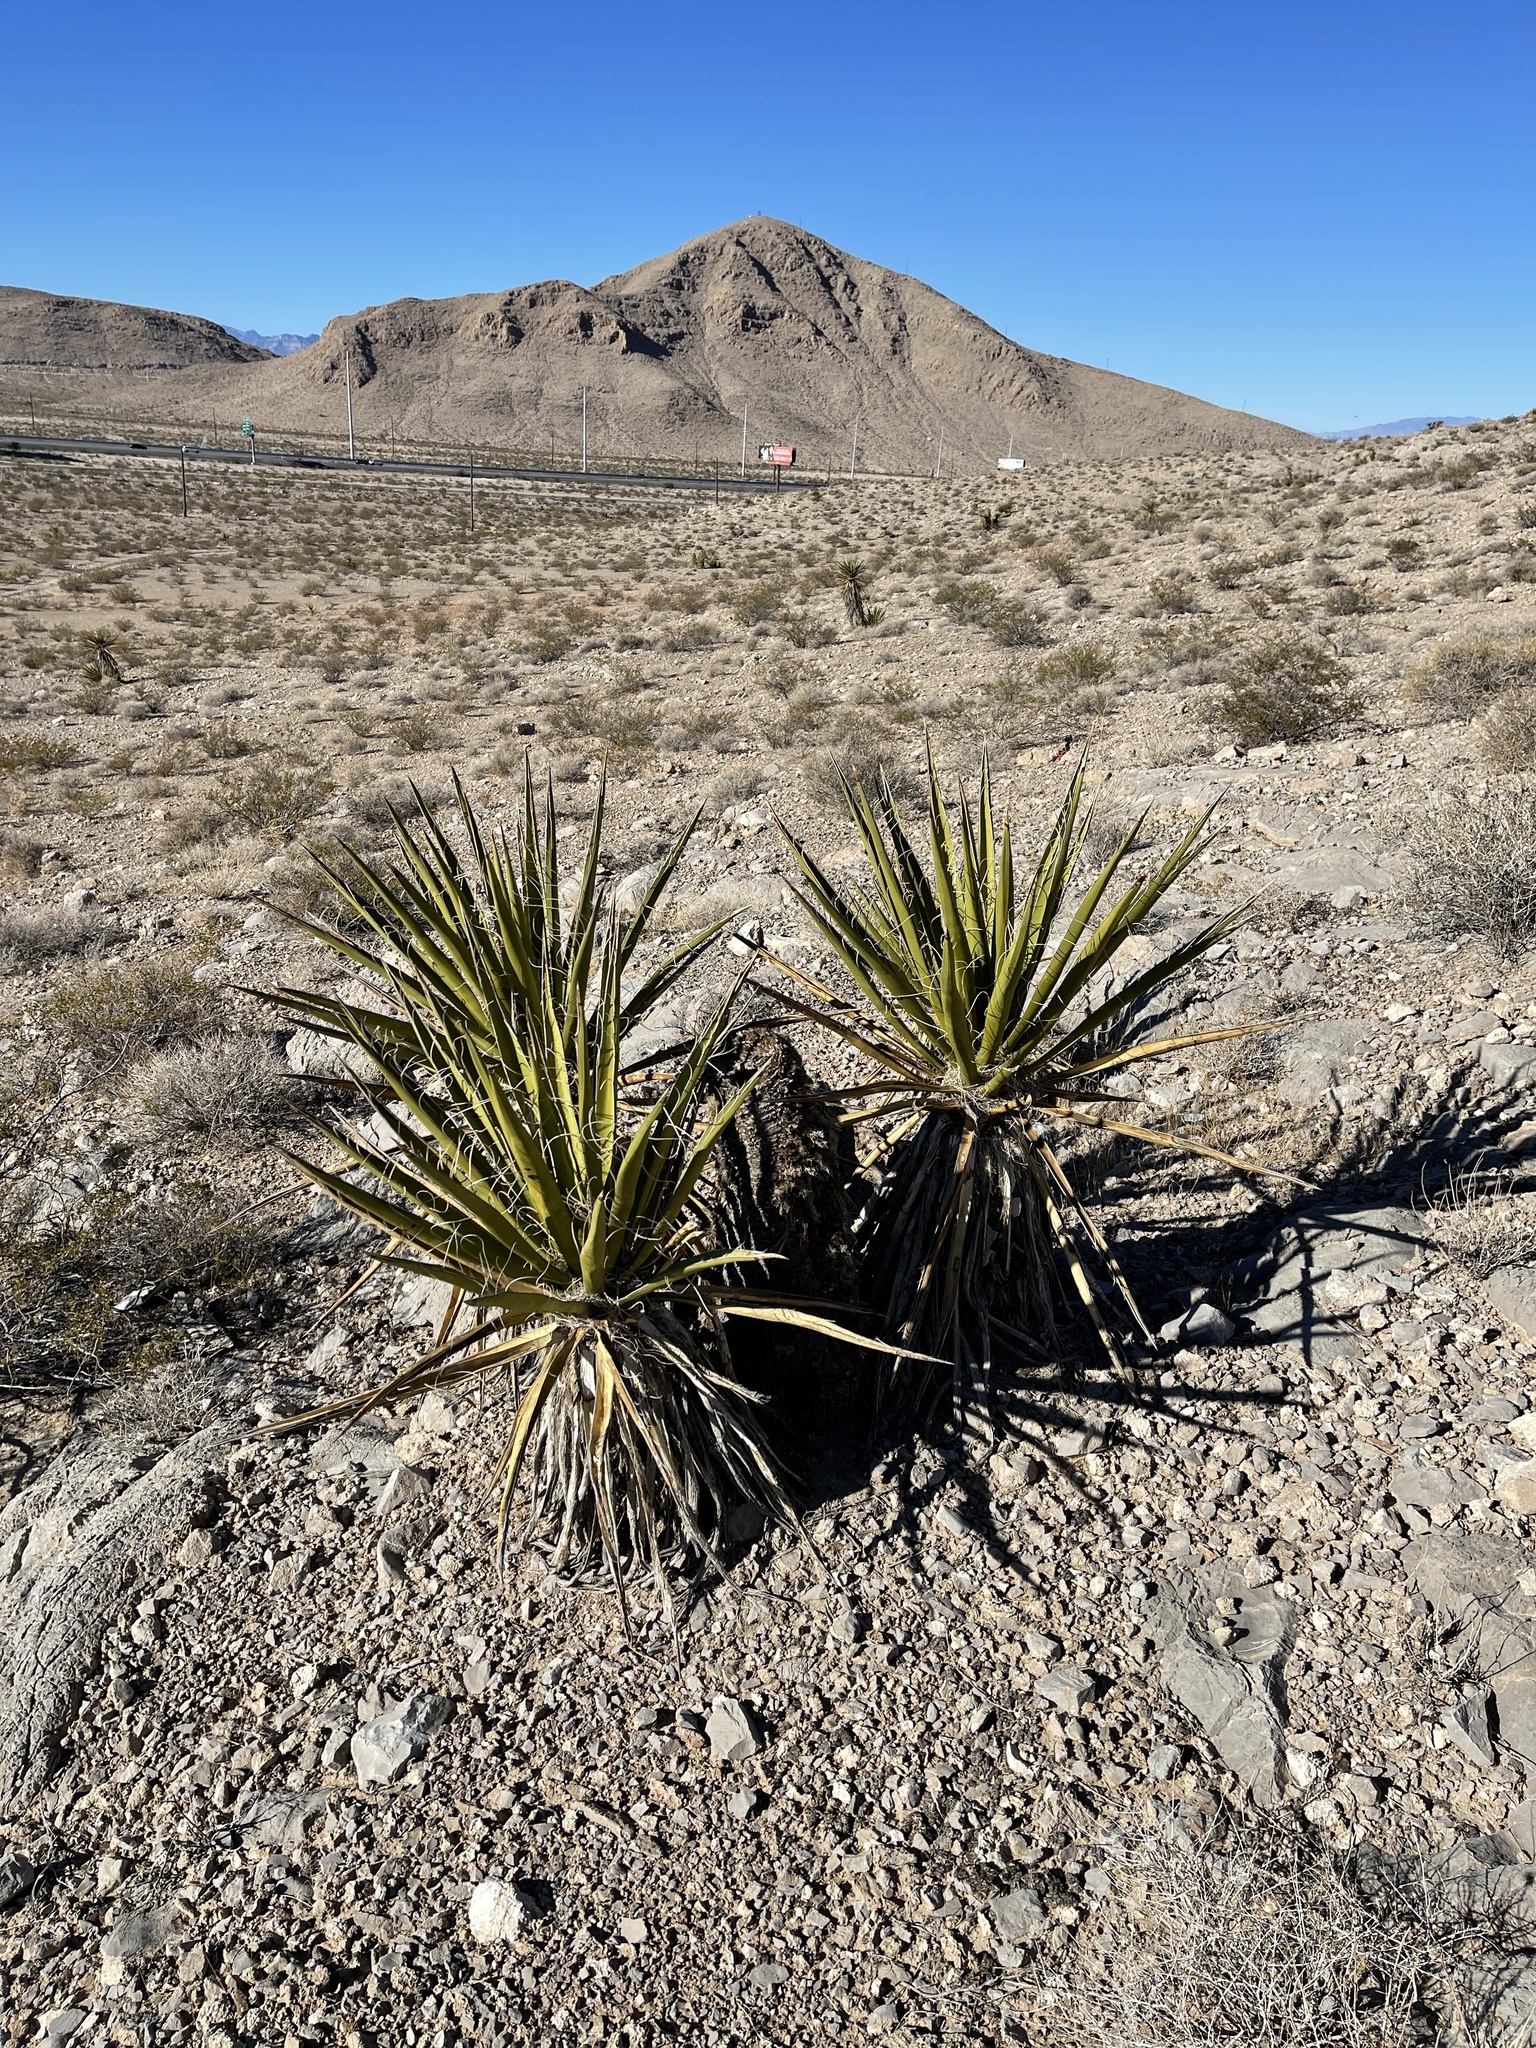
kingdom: Plantae
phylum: Tracheophyta
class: Liliopsida
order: Asparagales
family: Asparagaceae
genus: Yucca
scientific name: Yucca schidigera
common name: Mojave yucca
